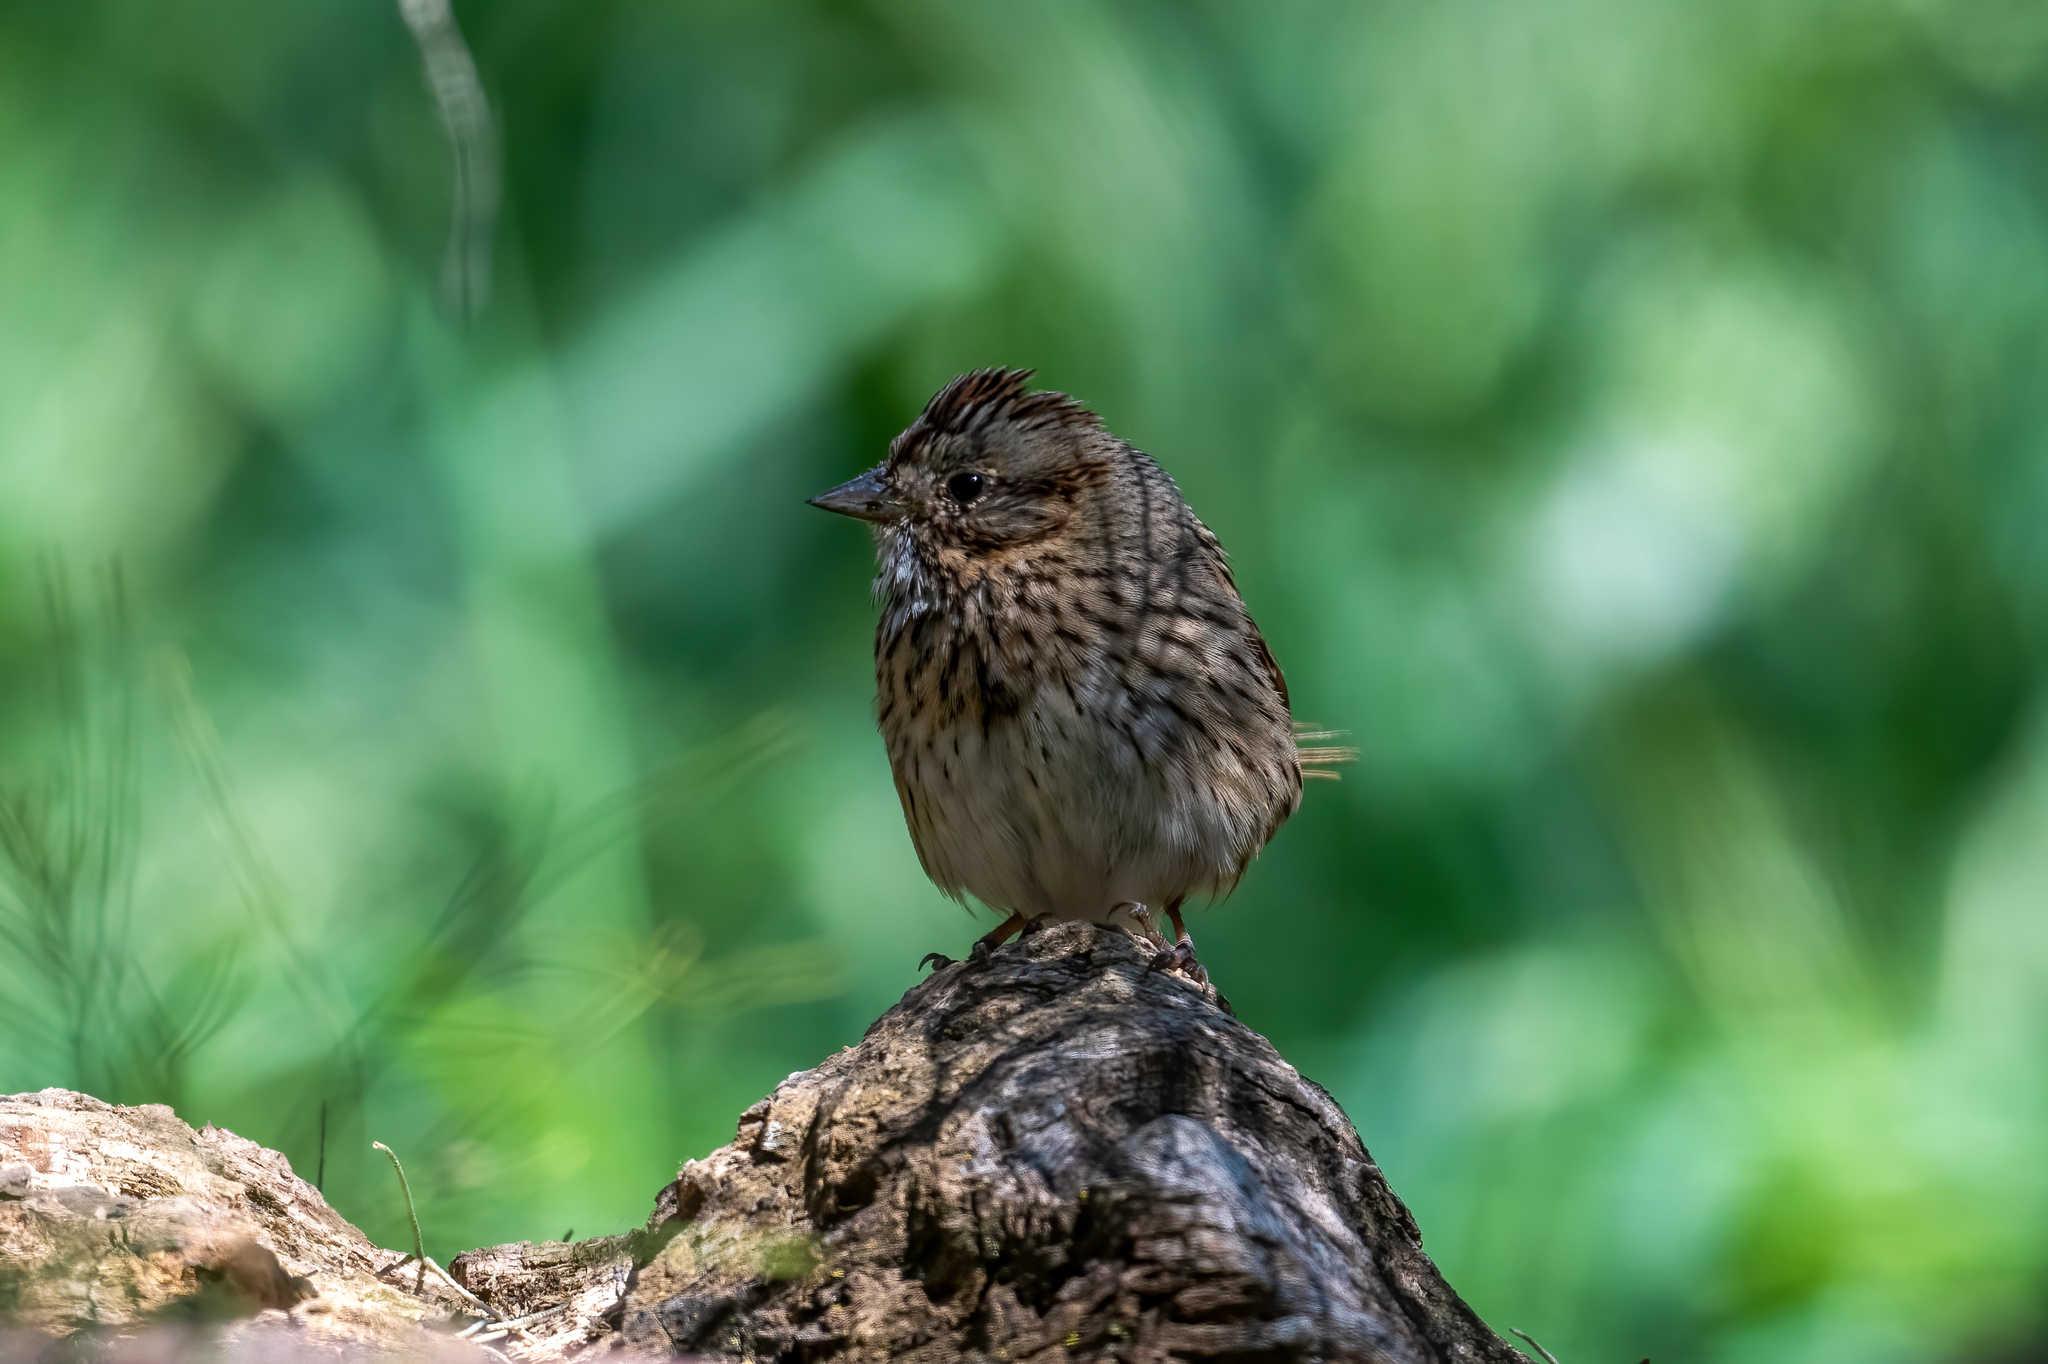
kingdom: Animalia
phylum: Chordata
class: Aves
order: Passeriformes
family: Passerellidae
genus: Melospiza
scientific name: Melospiza lincolnii
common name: Lincoln's sparrow
